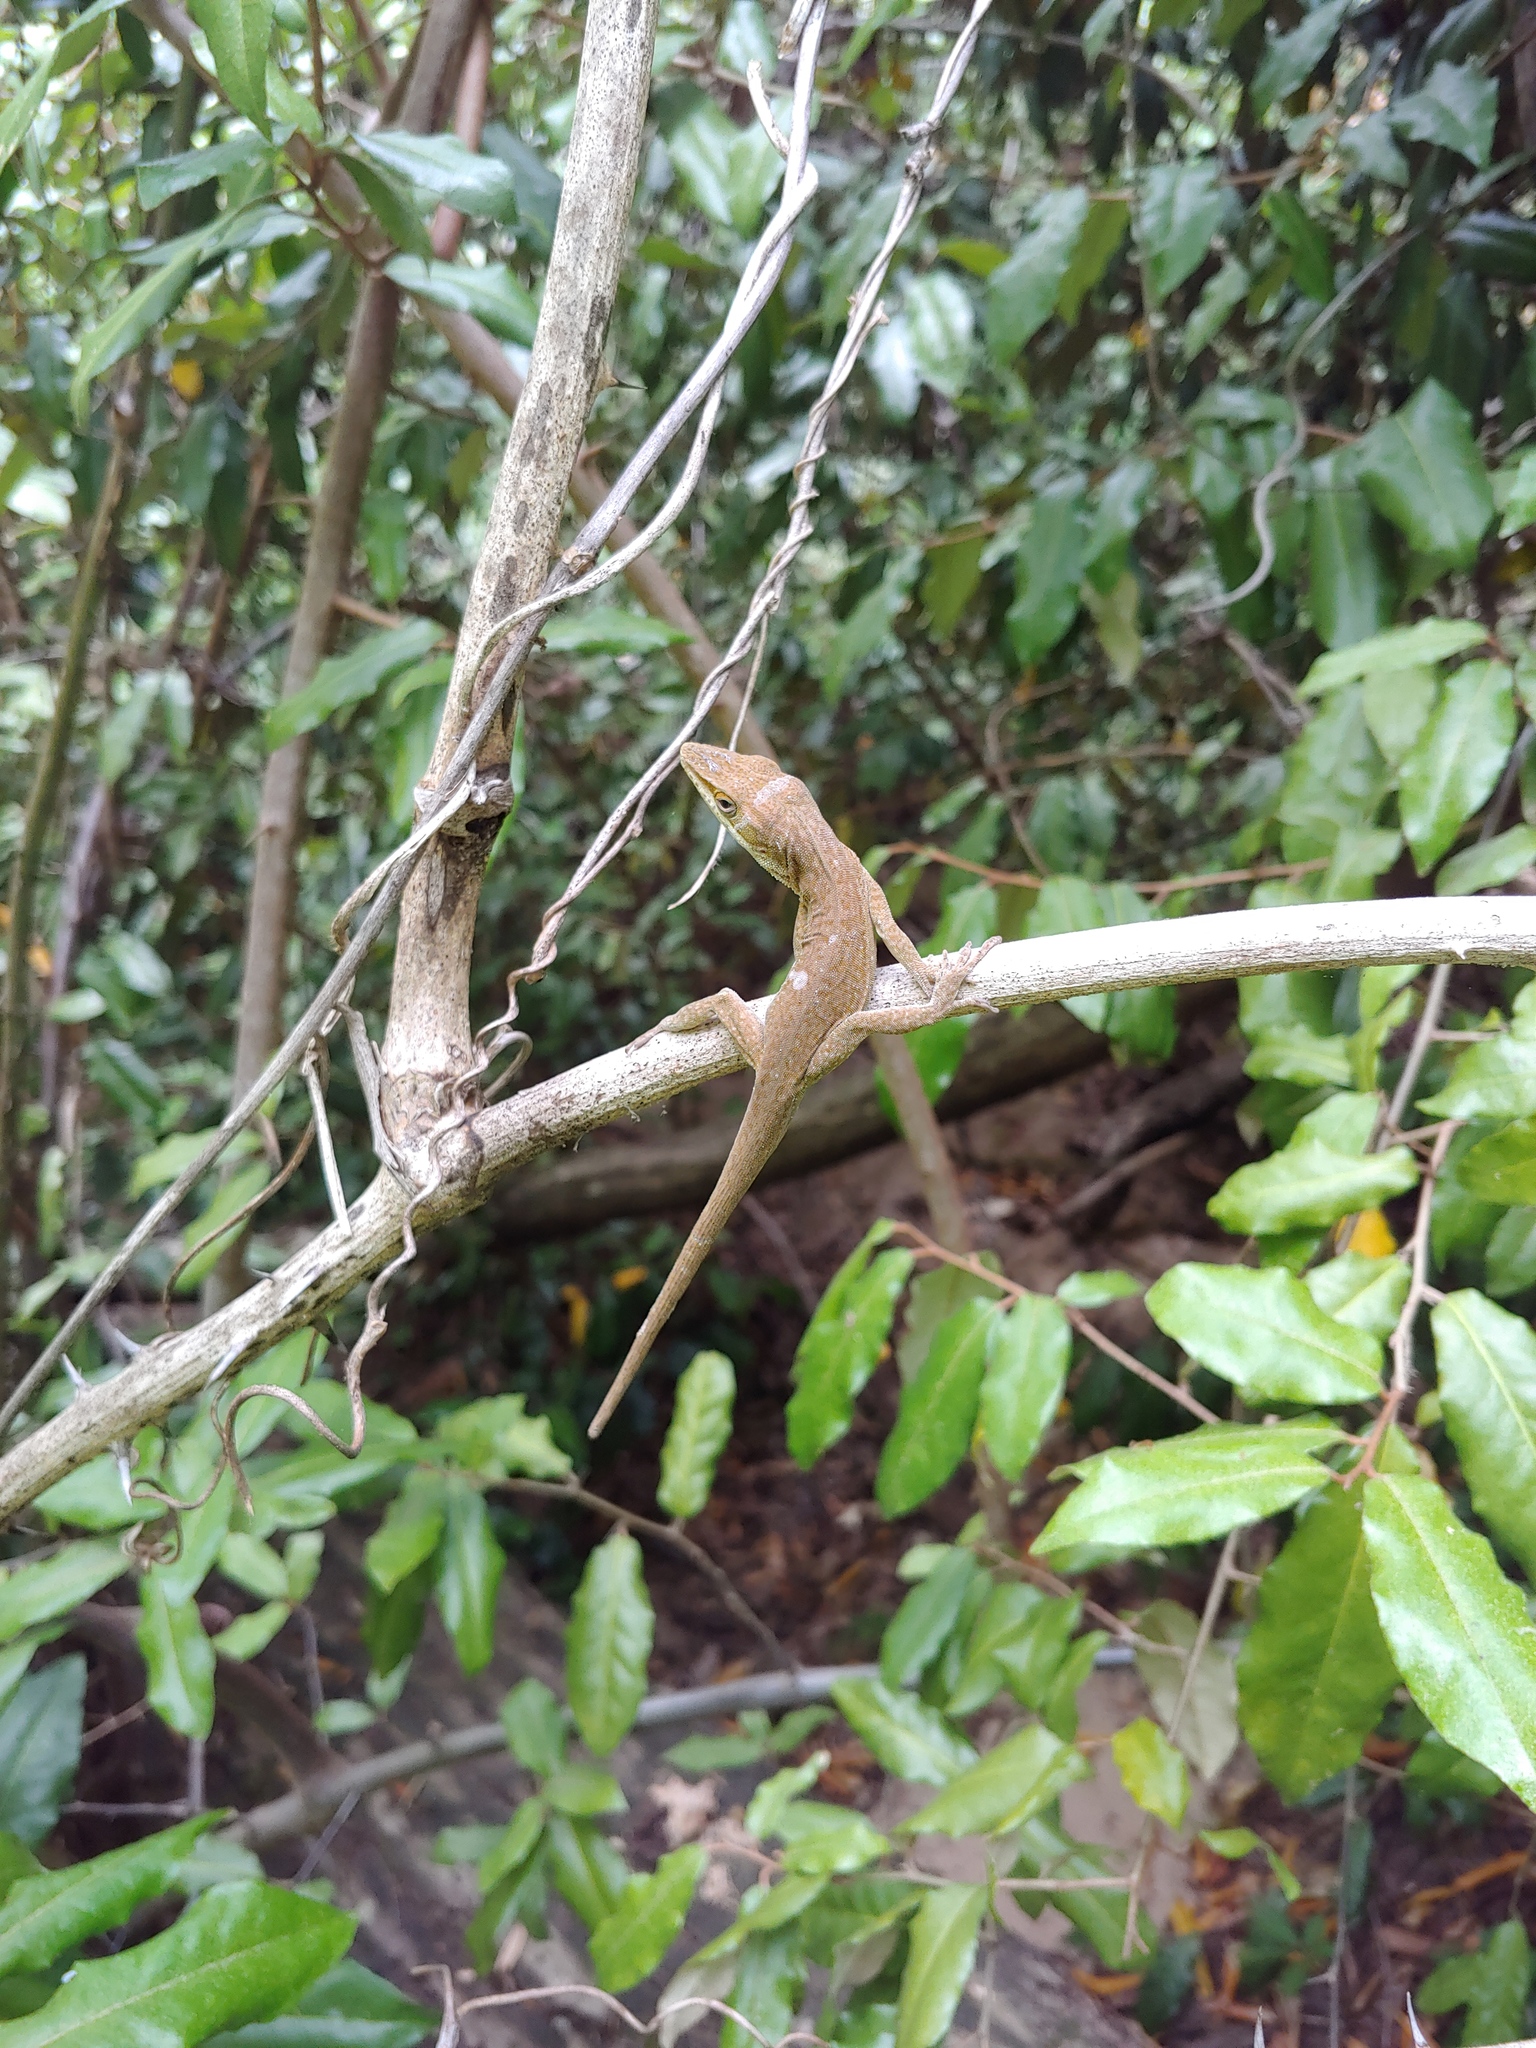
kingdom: Animalia
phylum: Chordata
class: Squamata
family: Dactyloidae
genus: Anolis
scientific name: Anolis carolinensis
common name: Green anole
